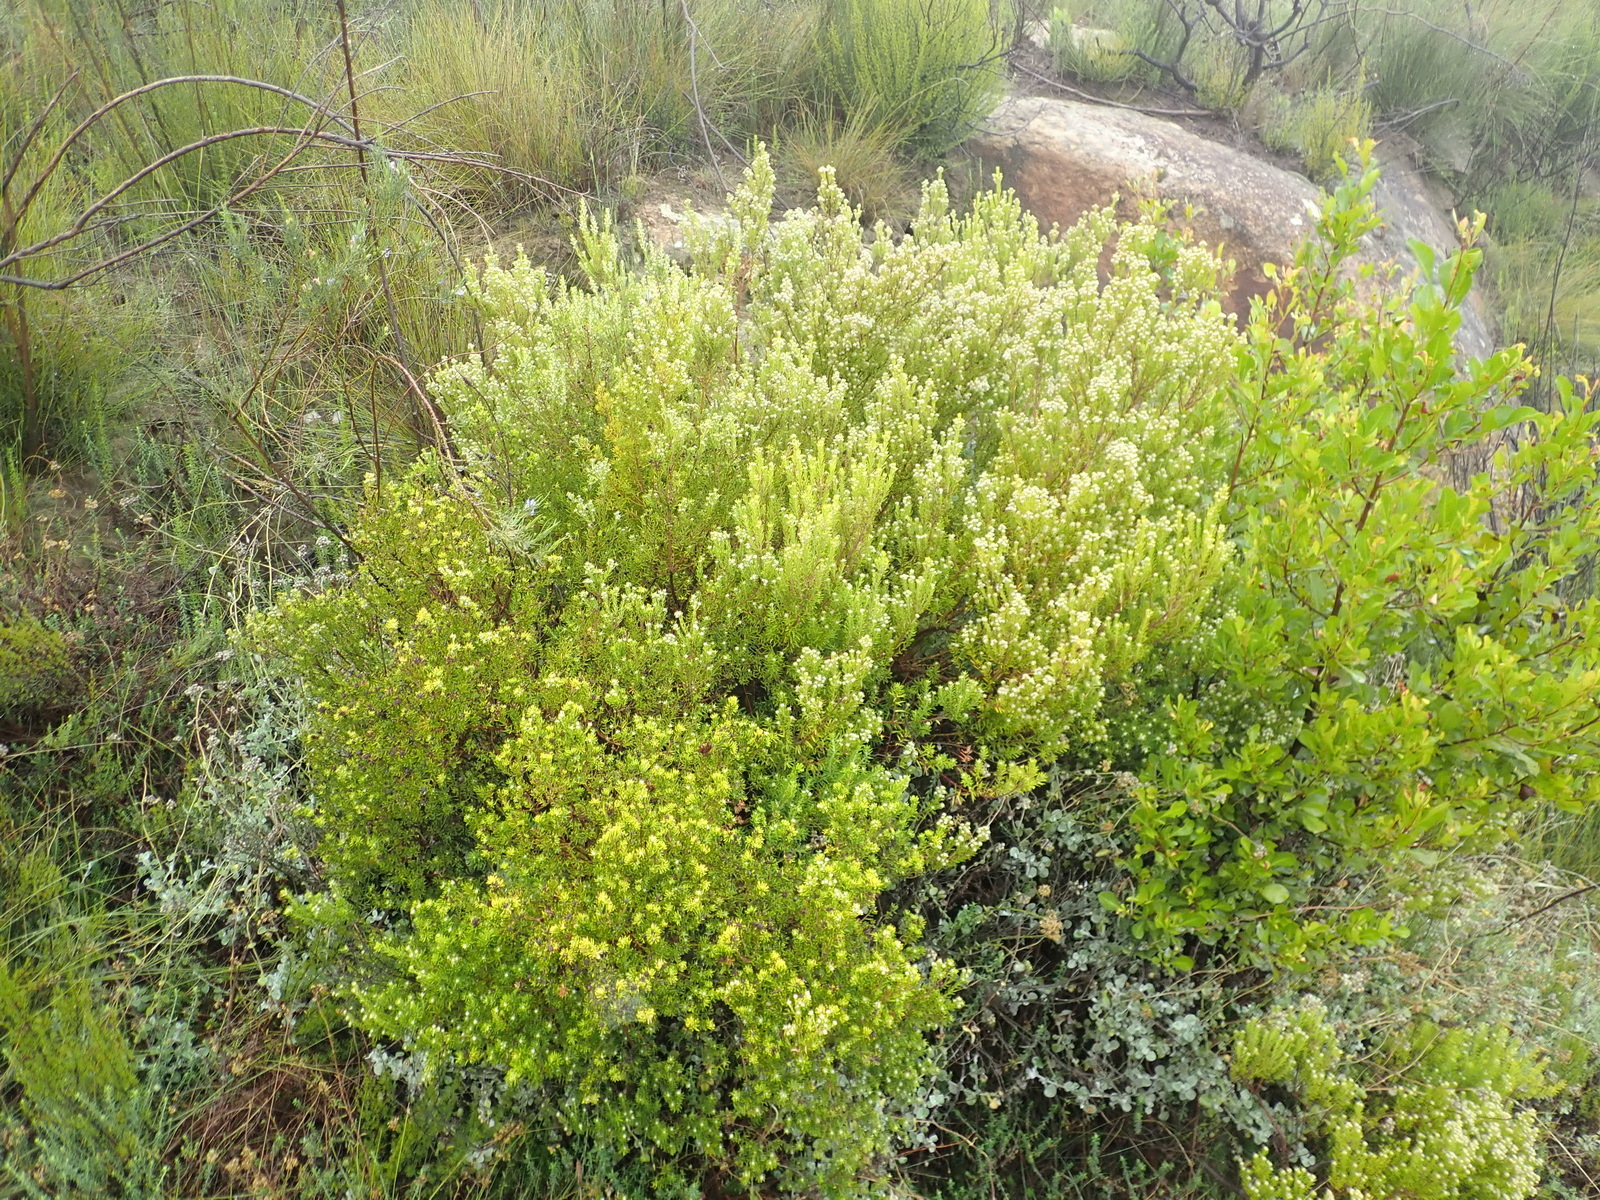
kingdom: Plantae
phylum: Tracheophyta
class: Magnoliopsida
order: Rosales
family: Rhamnaceae
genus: Phylica
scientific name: Phylica wittebergensis
